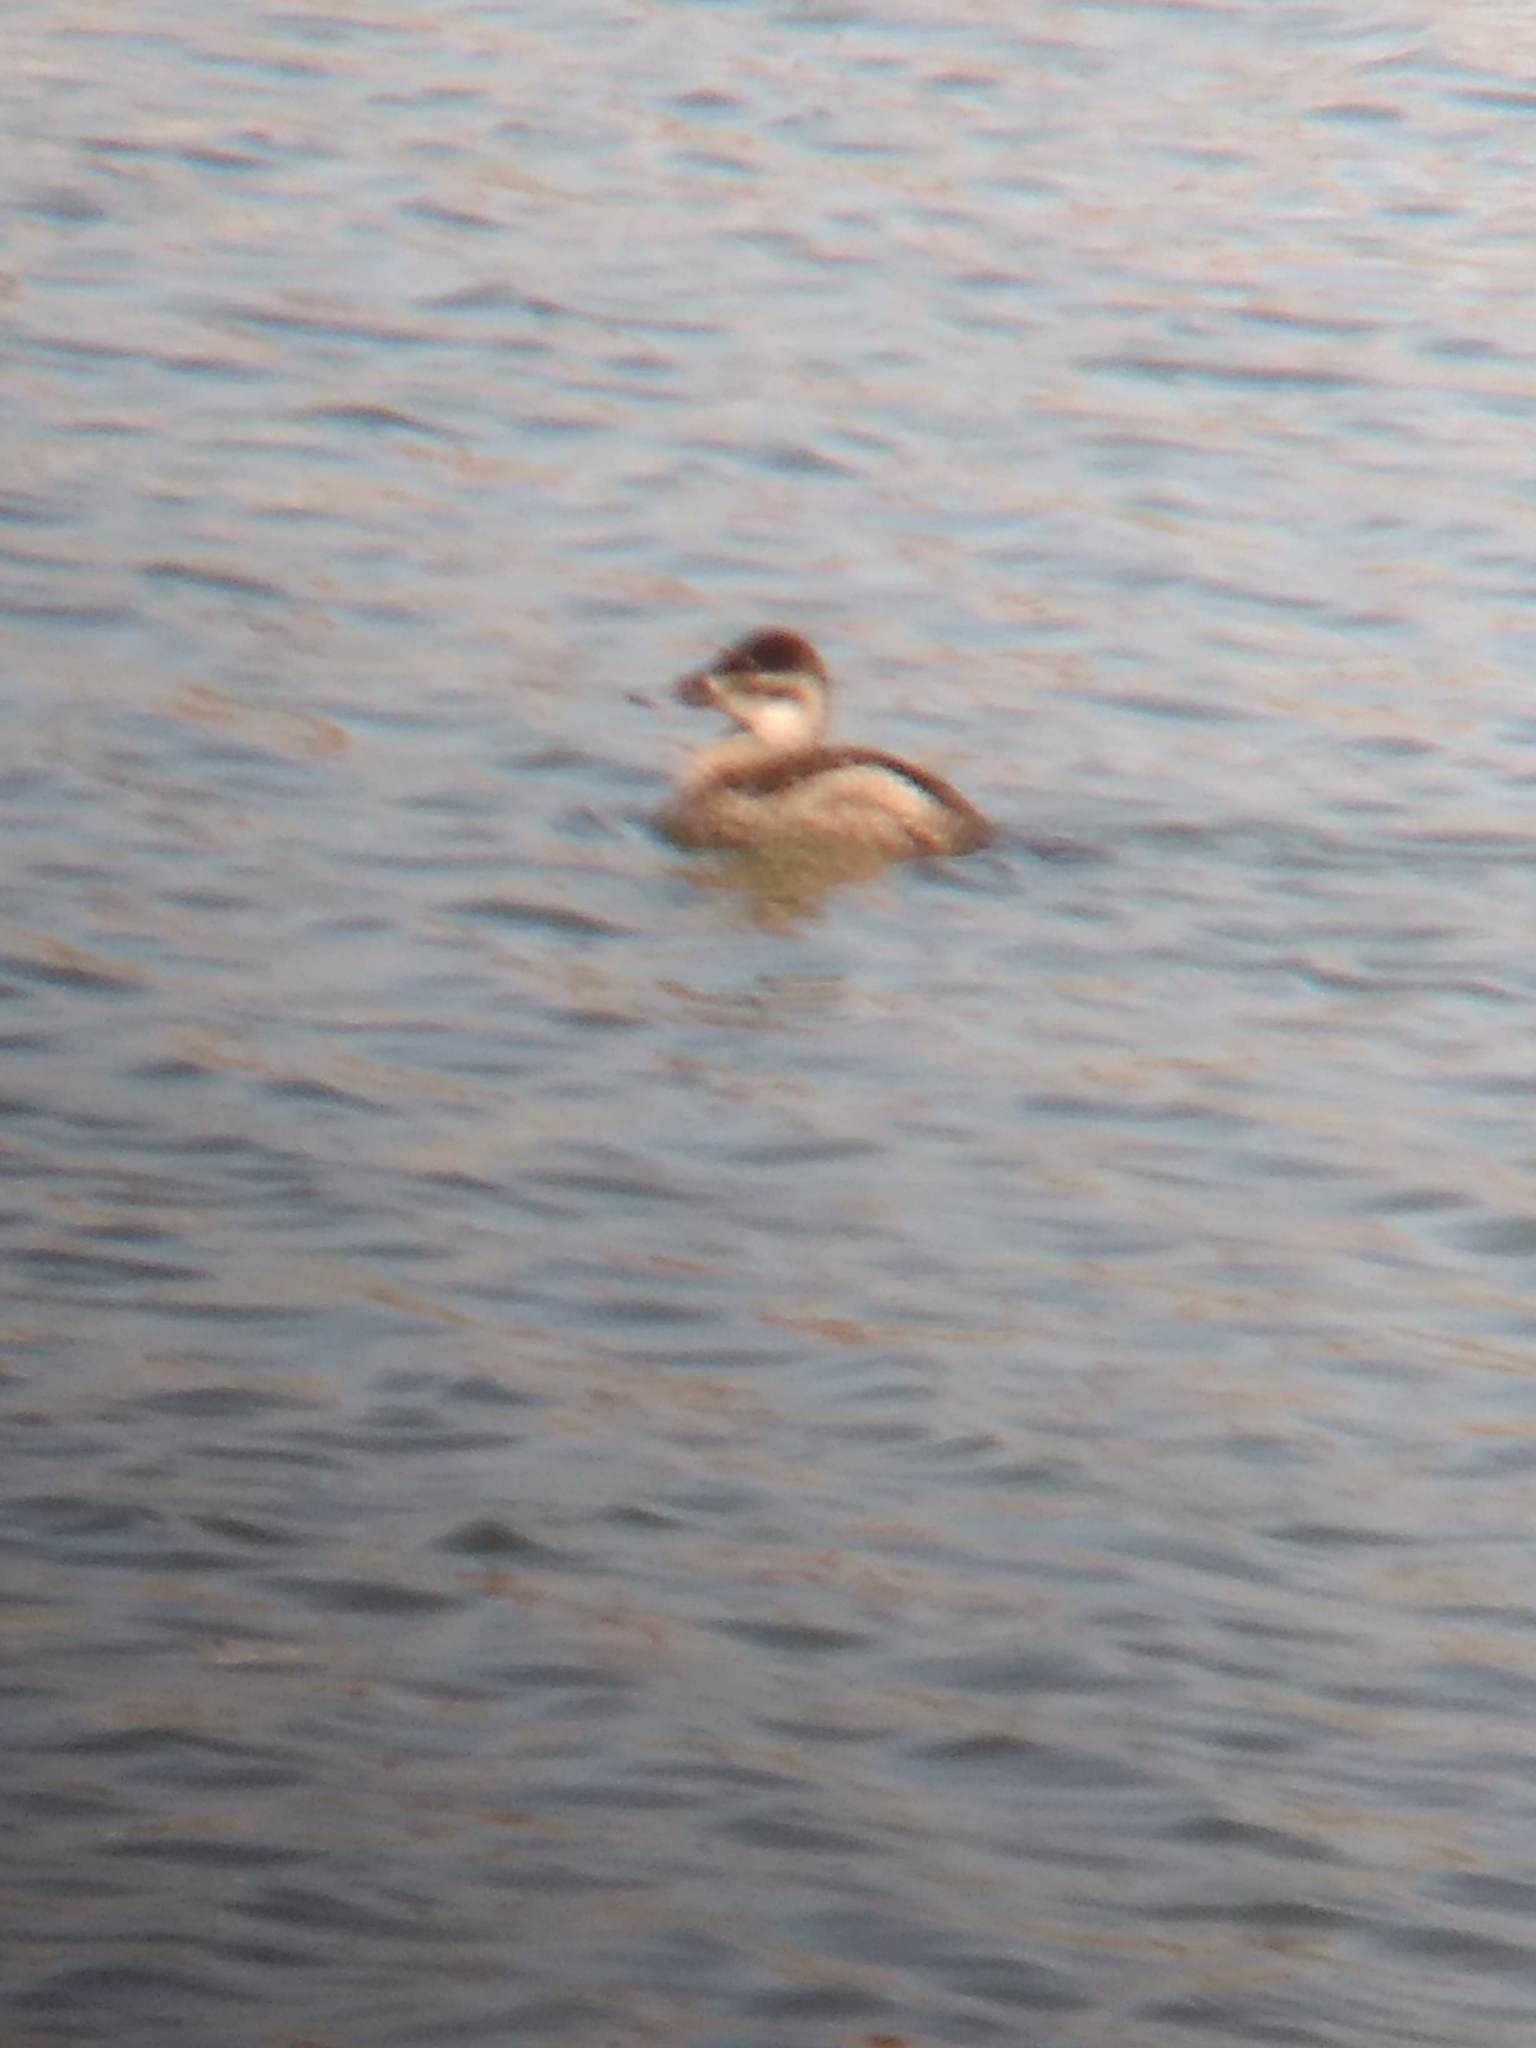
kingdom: Animalia
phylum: Chordata
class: Aves
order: Anseriformes
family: Anatidae
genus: Oxyura
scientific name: Oxyura jamaicensis
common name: Ruddy duck
